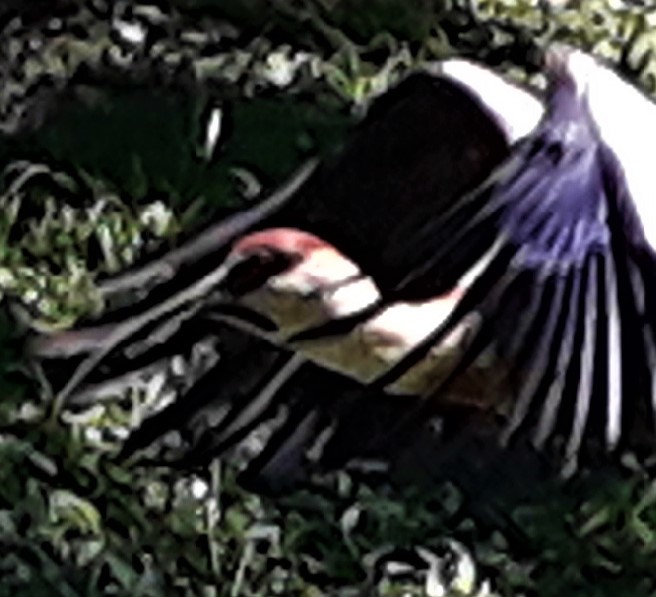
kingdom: Animalia
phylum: Chordata
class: Aves
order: Pelecaniformes
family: Threskiornithidae
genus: Theristicus
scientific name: Theristicus caudatus
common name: Buff-necked ibis
